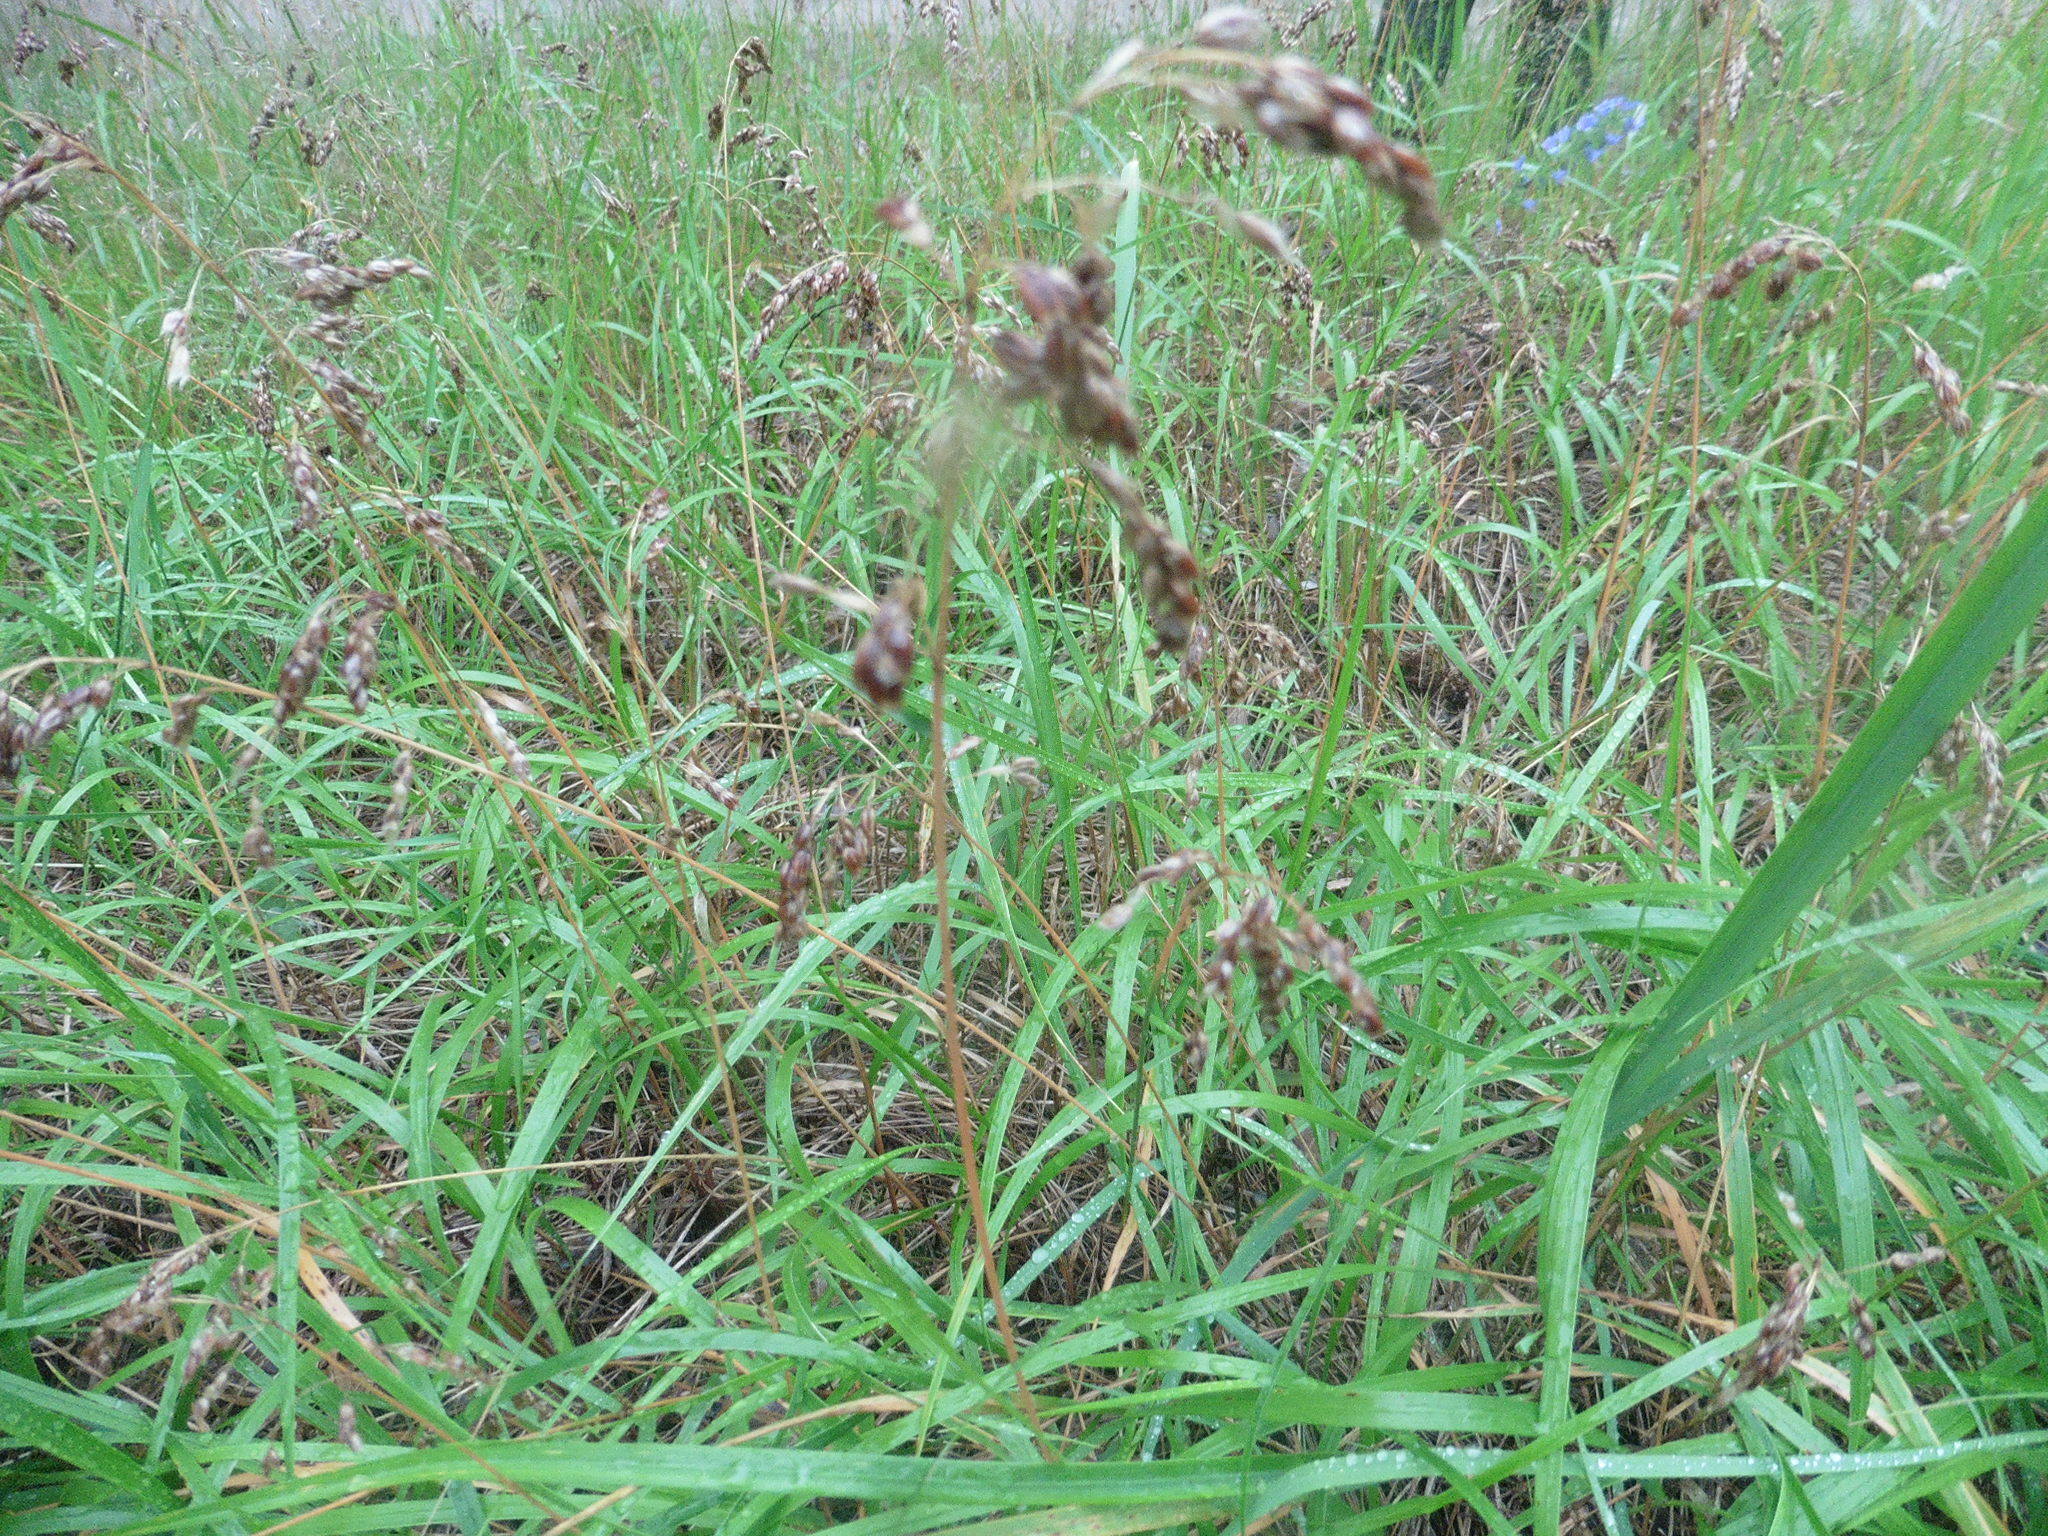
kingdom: Plantae
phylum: Tracheophyta
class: Liliopsida
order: Poales
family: Poaceae
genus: Anthoxanthum
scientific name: Anthoxanthum nitens
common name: Holy grass
